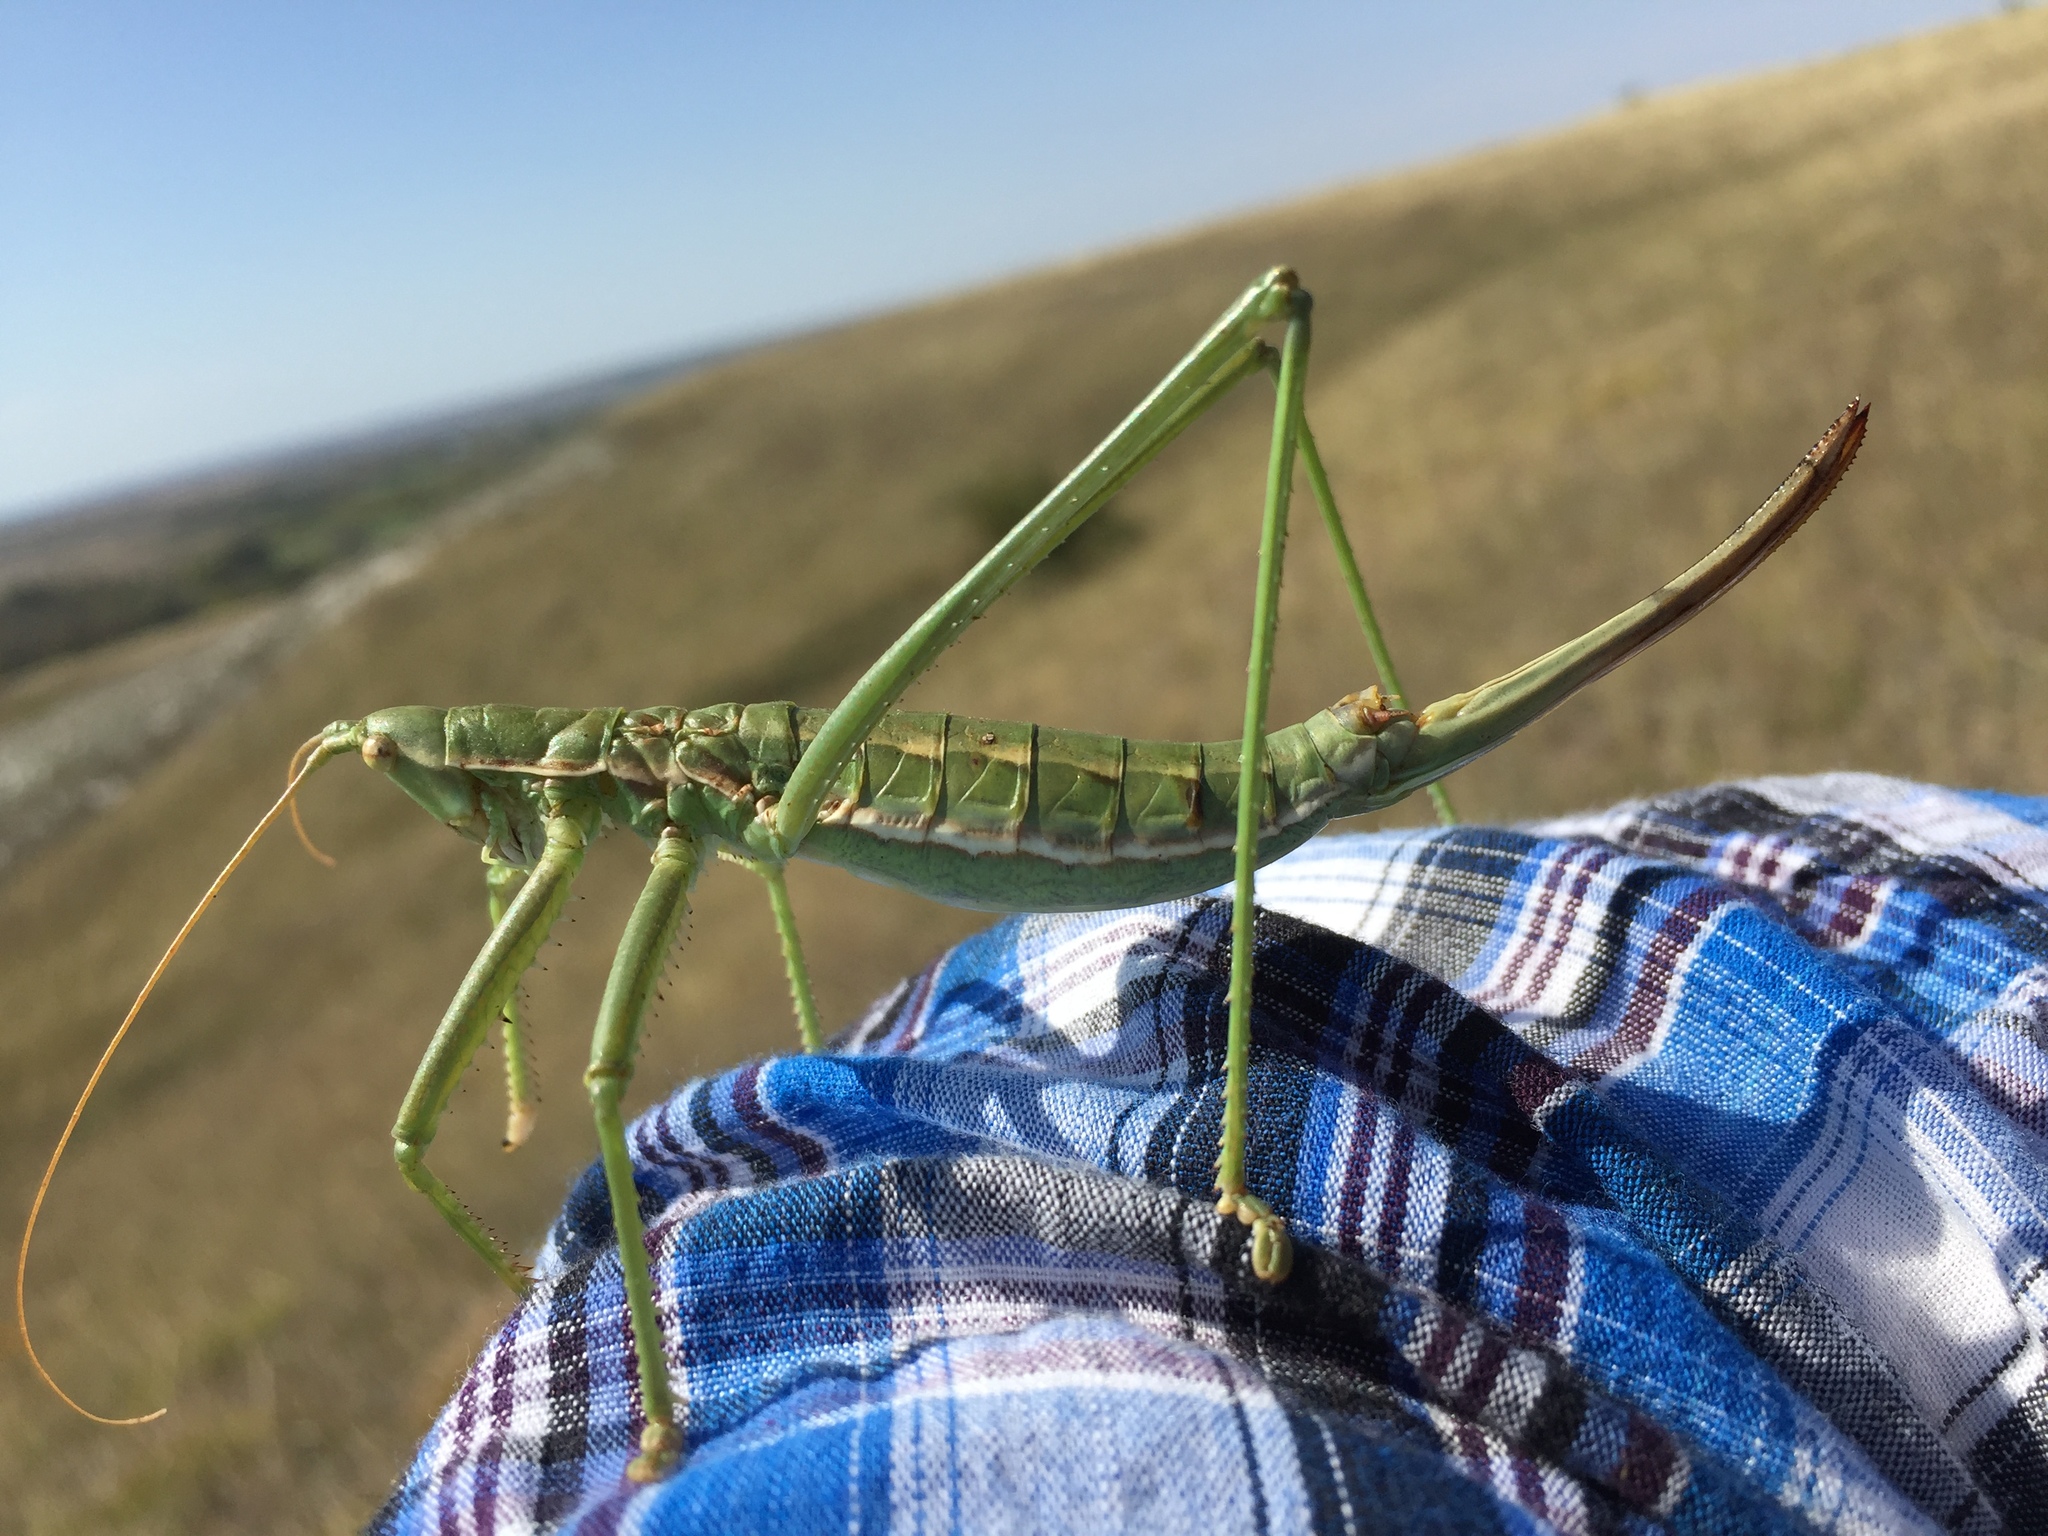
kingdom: Animalia
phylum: Arthropoda
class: Insecta
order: Orthoptera
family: Tettigoniidae
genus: Saga
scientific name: Saga pedo
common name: Common predatory bush-cricket
